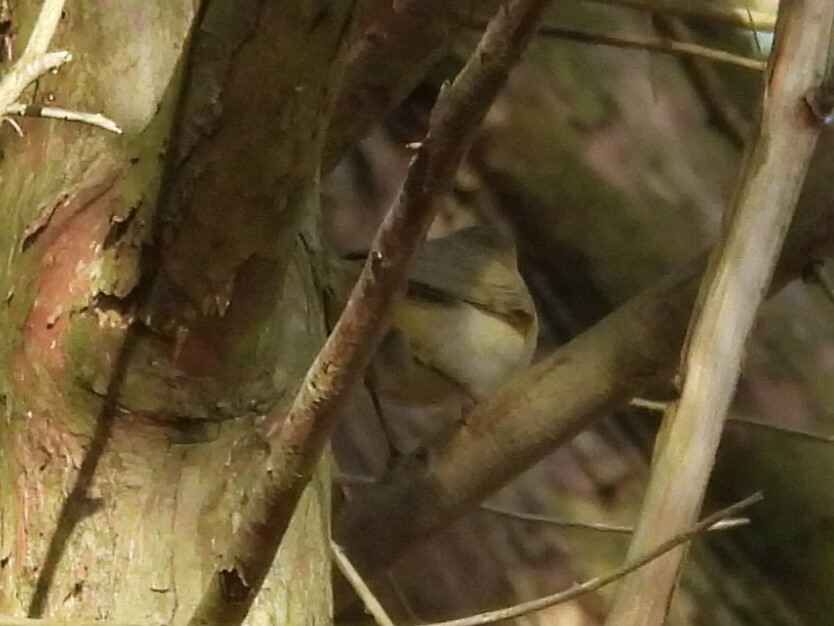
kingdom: Animalia
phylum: Chordata
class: Aves
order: Passeriformes
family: Phylloscopidae
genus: Phylloscopus
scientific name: Phylloscopus collybita
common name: Common chiffchaff
